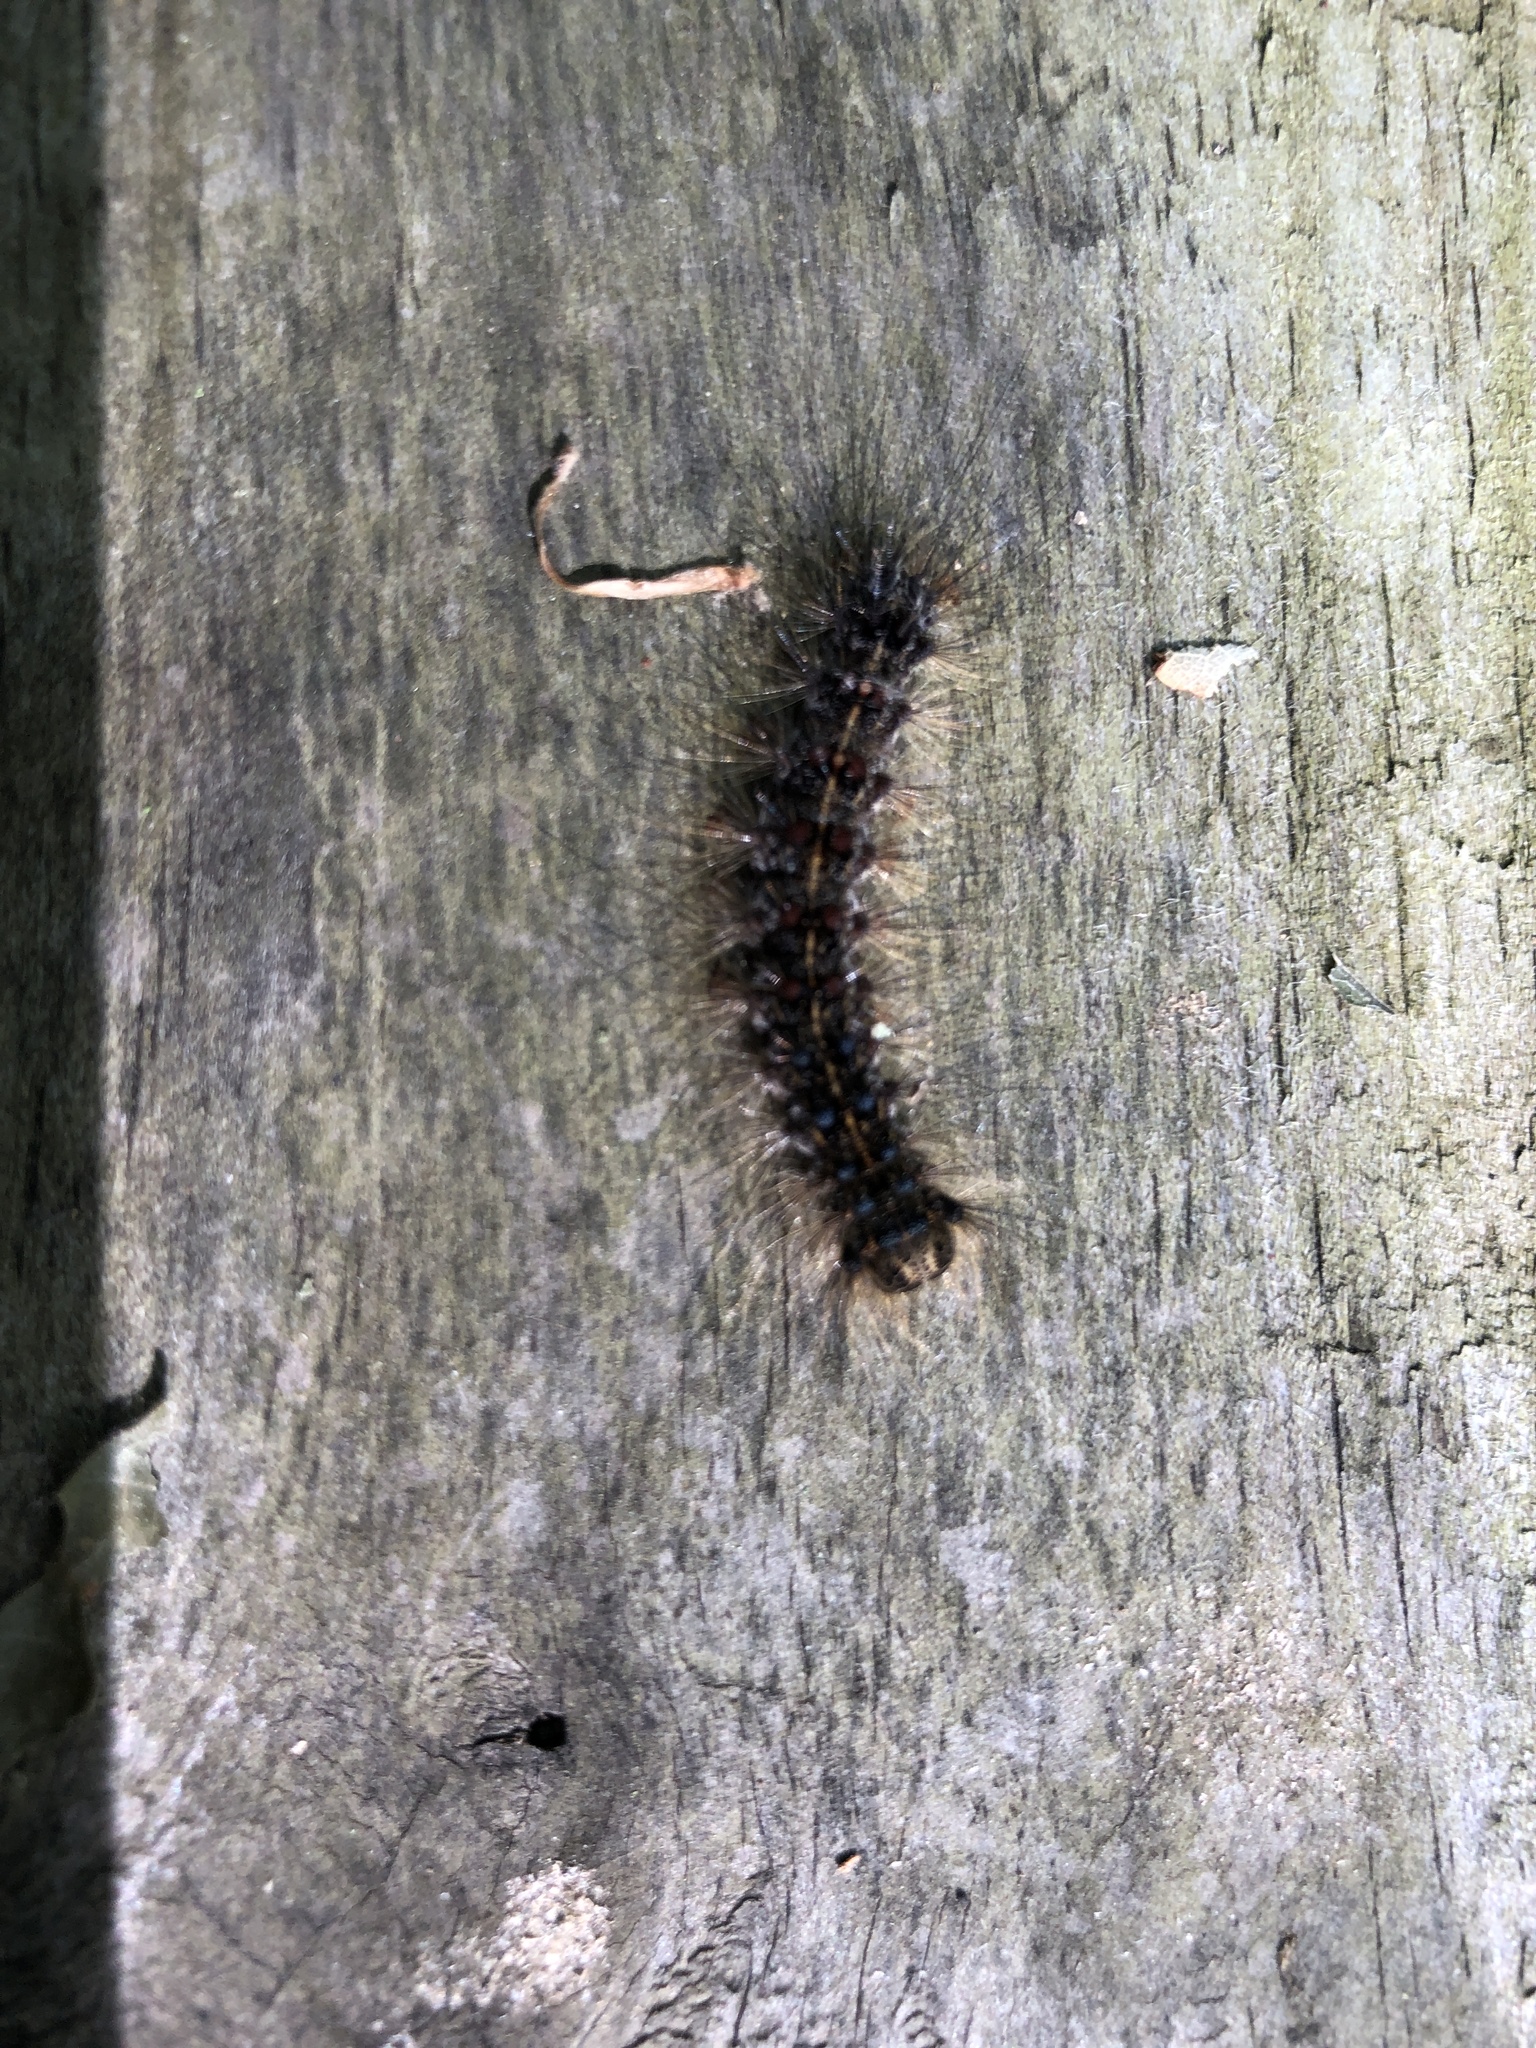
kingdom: Animalia
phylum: Arthropoda
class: Insecta
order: Lepidoptera
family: Erebidae
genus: Lymantria
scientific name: Lymantria dispar
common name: Gypsy moth
